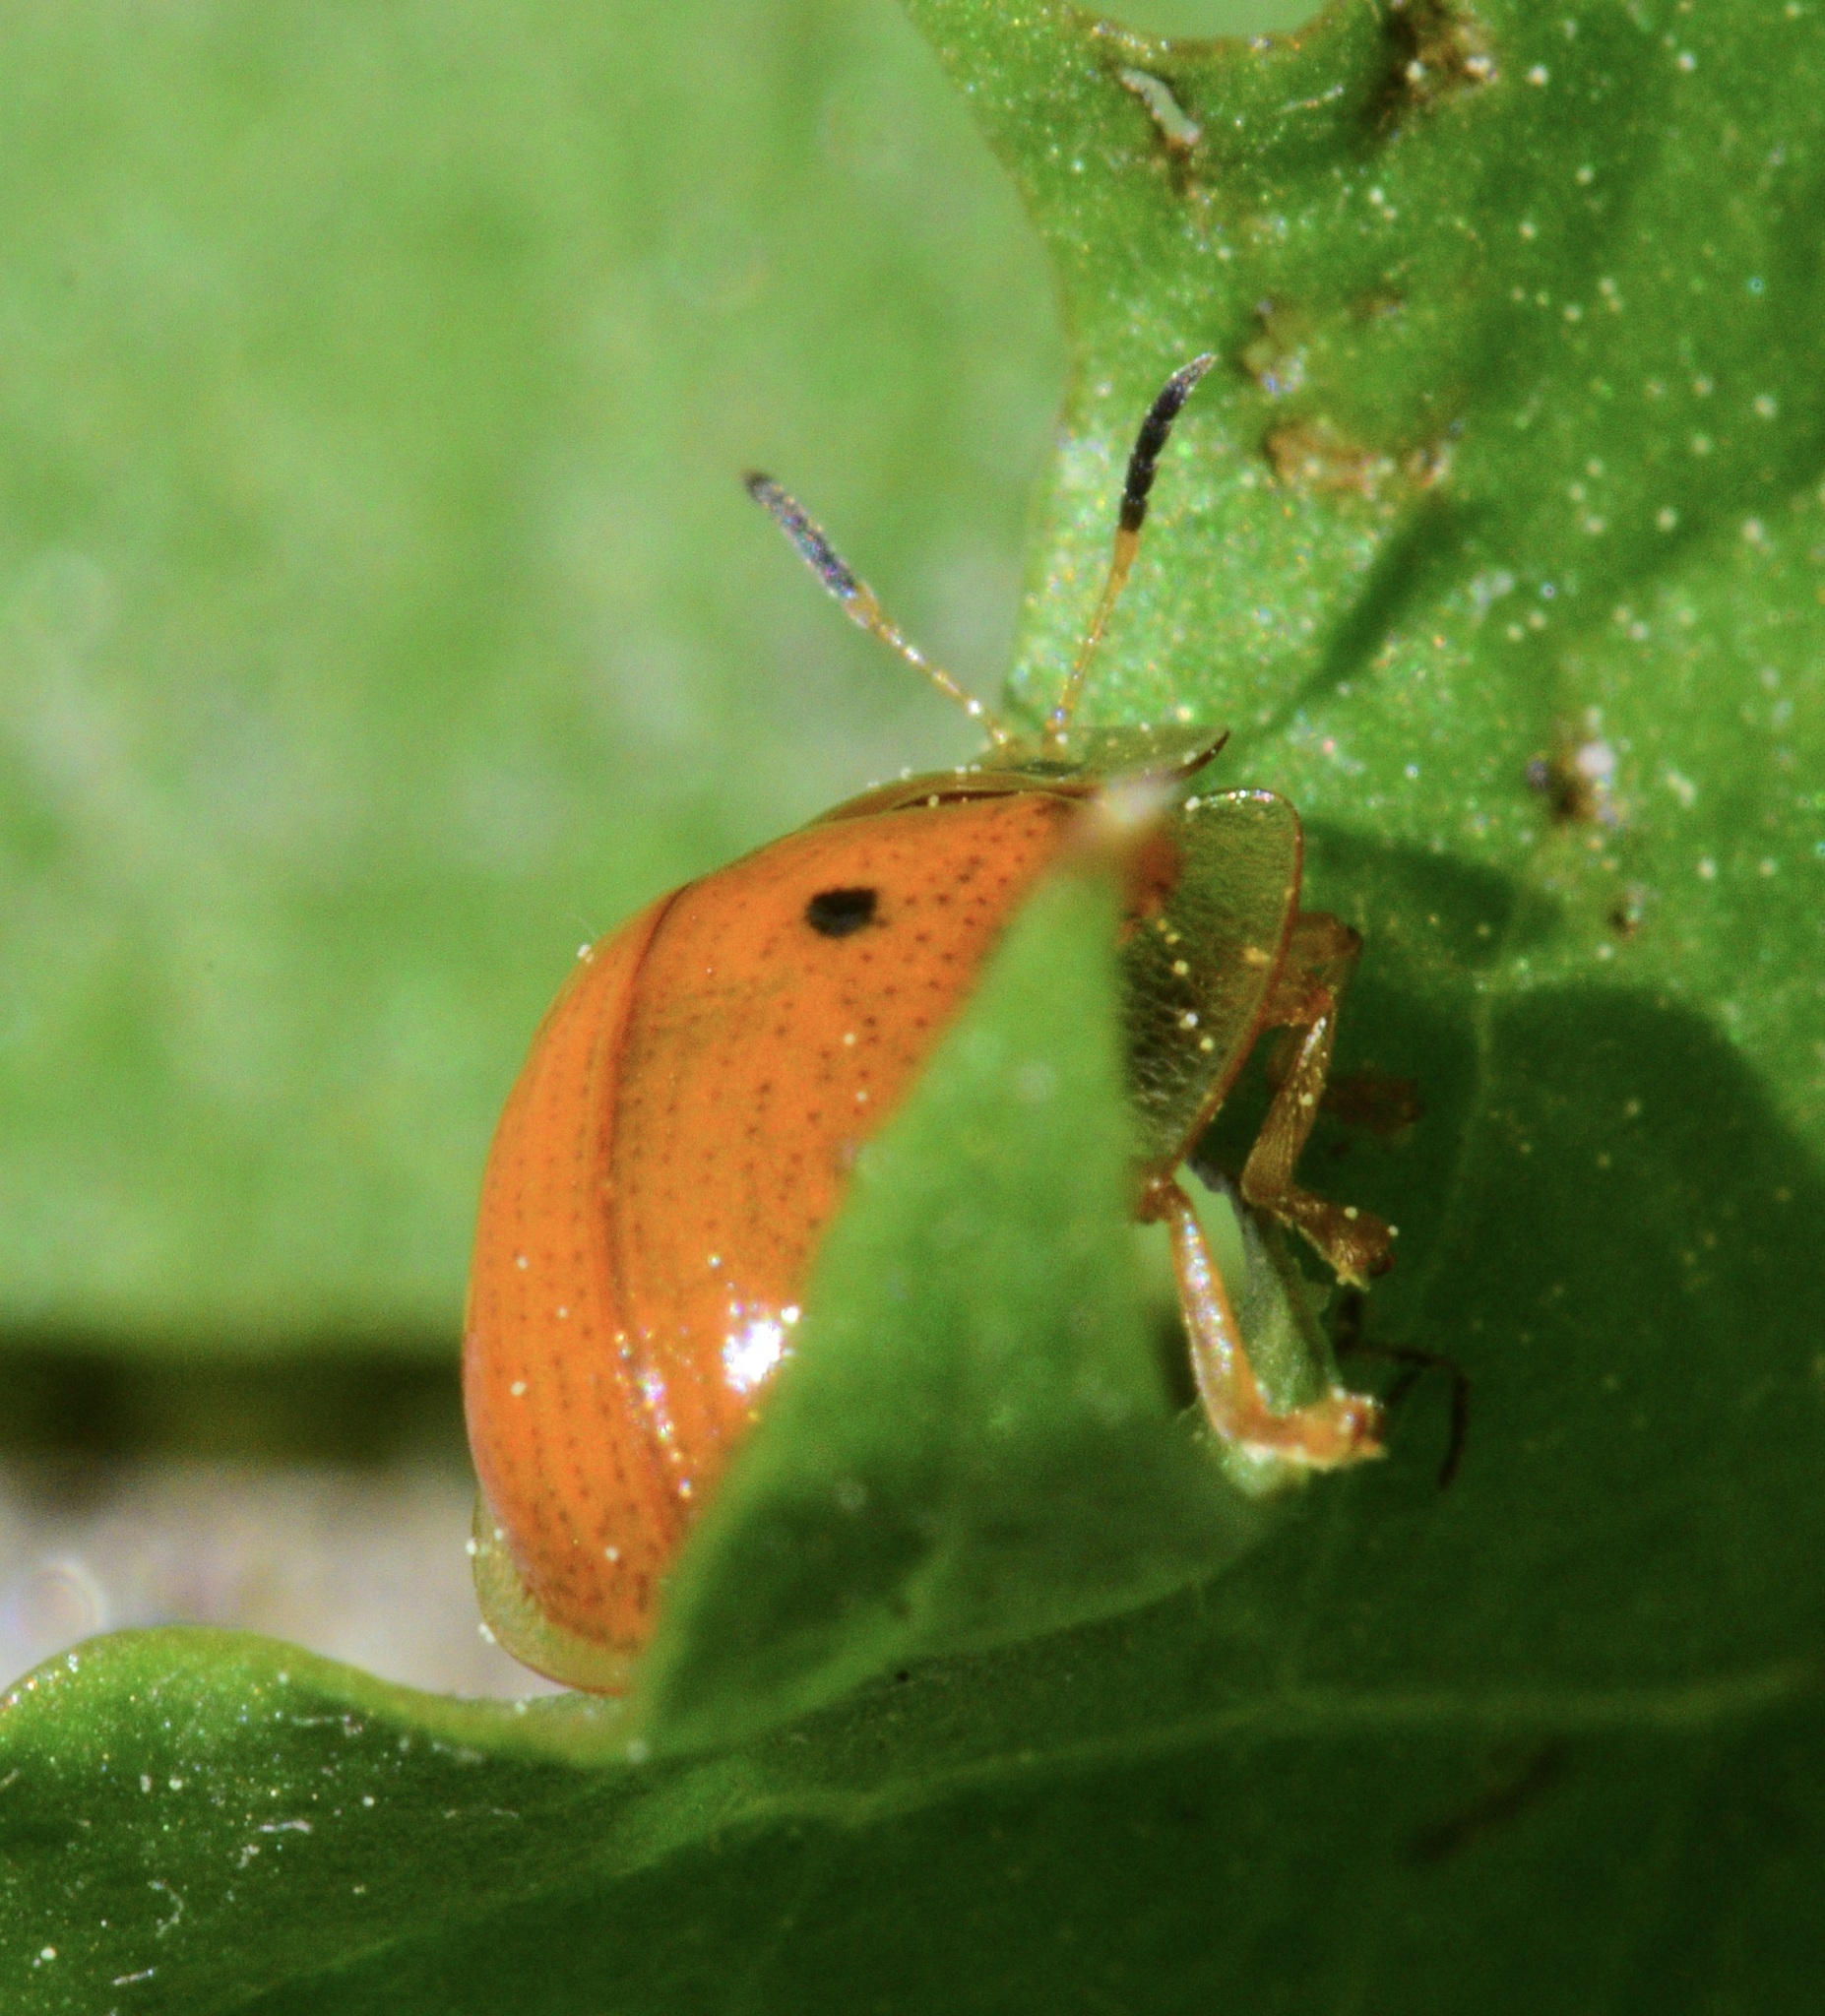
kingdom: Animalia
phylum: Arthropoda
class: Insecta
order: Coleoptera
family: Chrysomelidae
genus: Charidotella
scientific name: Charidotella sexpunctata
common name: Golden tortoise beetle
